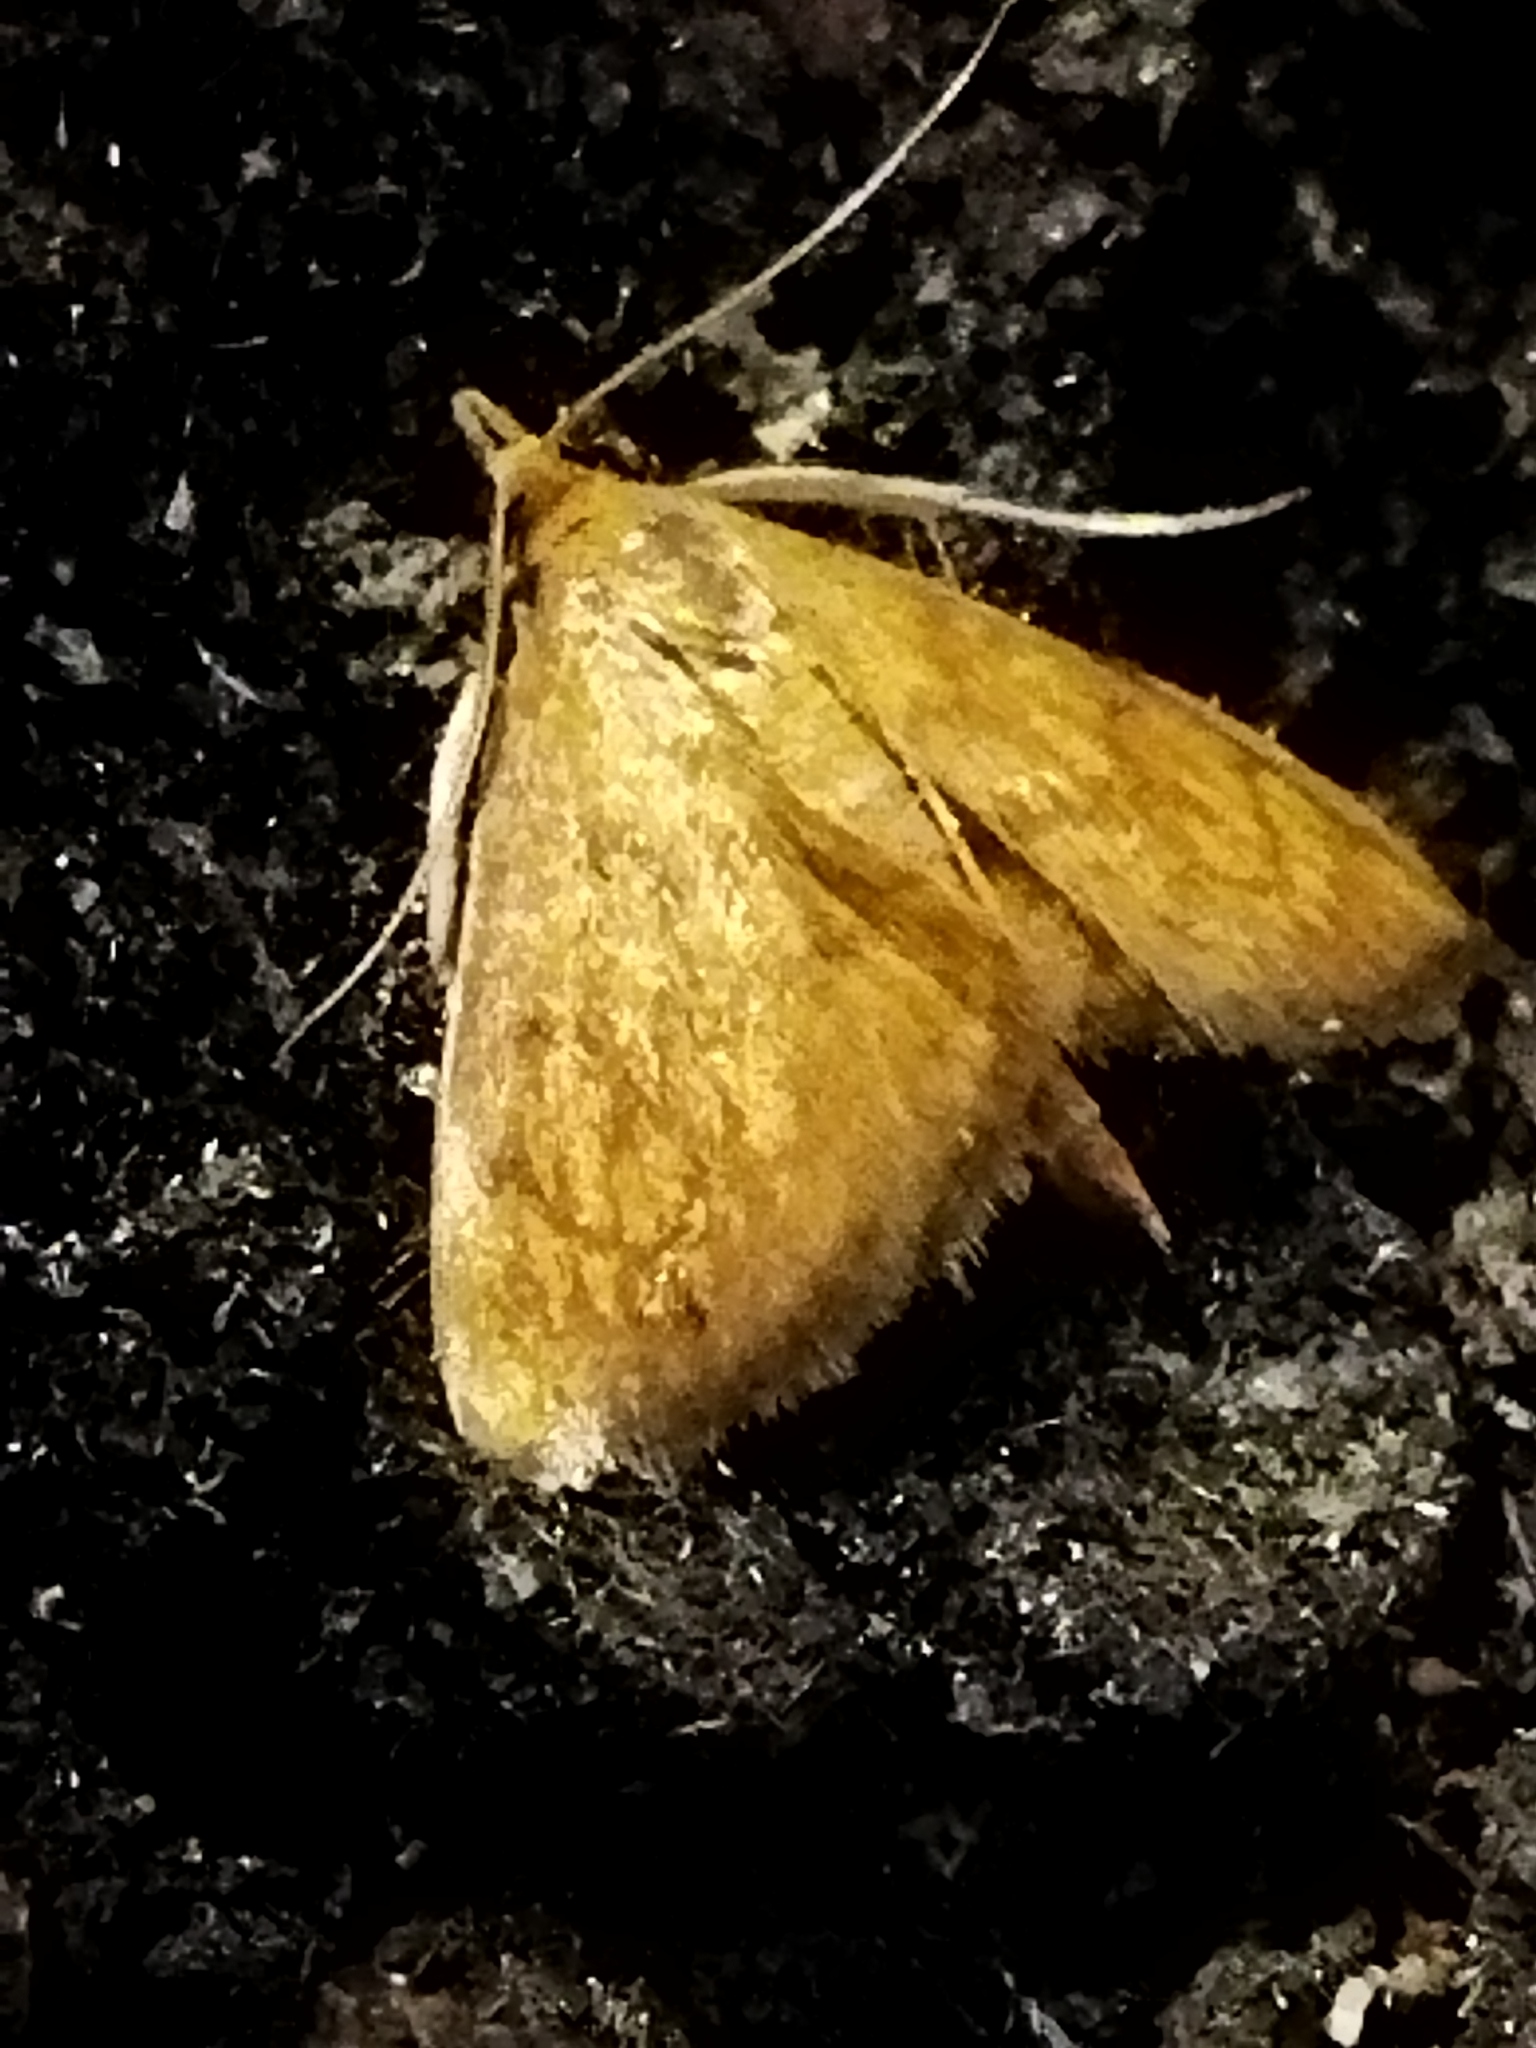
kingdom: Animalia
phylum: Arthropoda
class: Insecta
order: Lepidoptera
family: Crambidae
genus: Ecpyrrhorrhoe
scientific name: Ecpyrrhorrhoe rubiginalis
